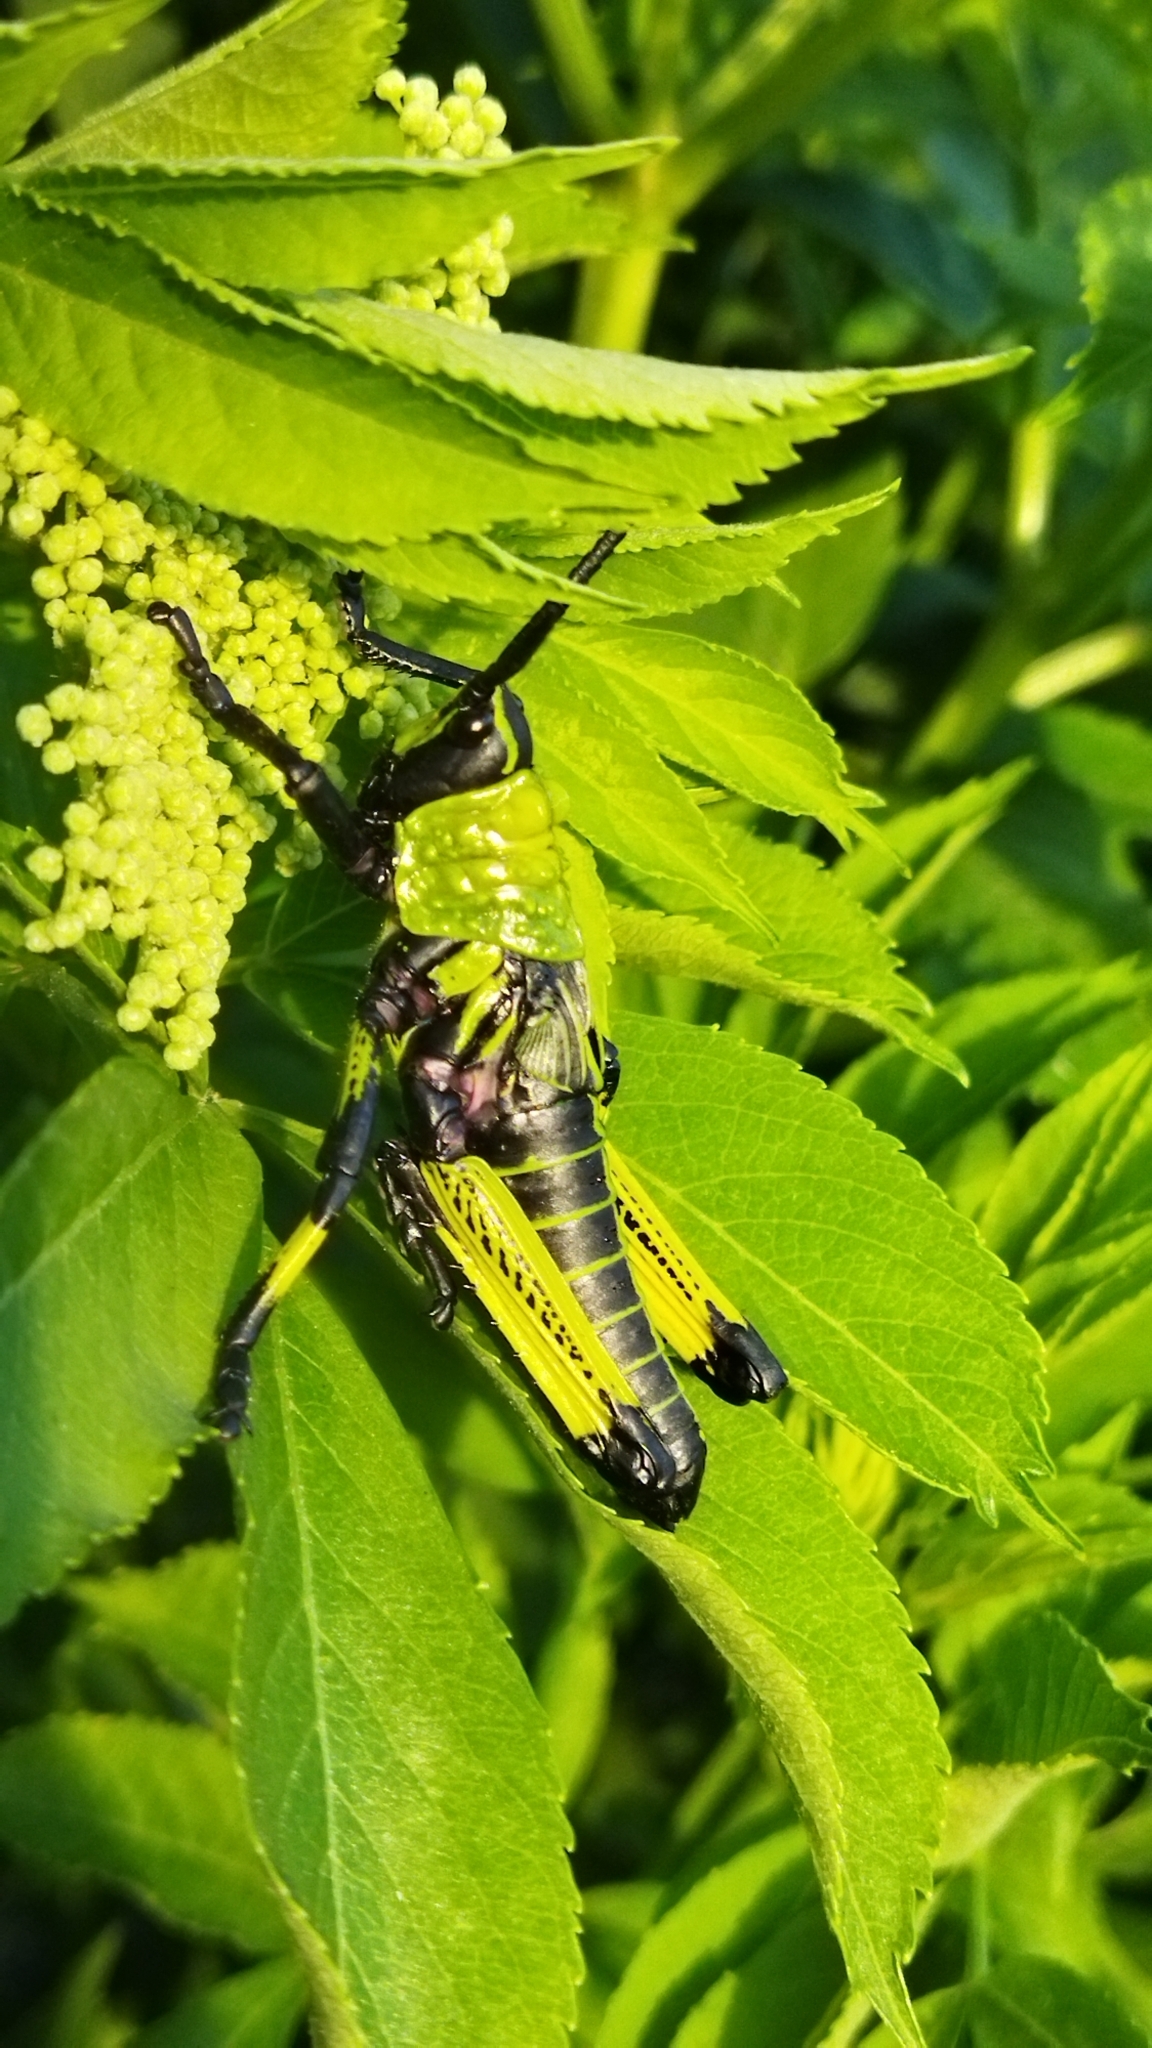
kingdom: Animalia
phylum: Arthropoda
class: Insecta
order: Orthoptera
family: Pyrgomorphidae
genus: Phymateus
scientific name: Phymateus leprosus
